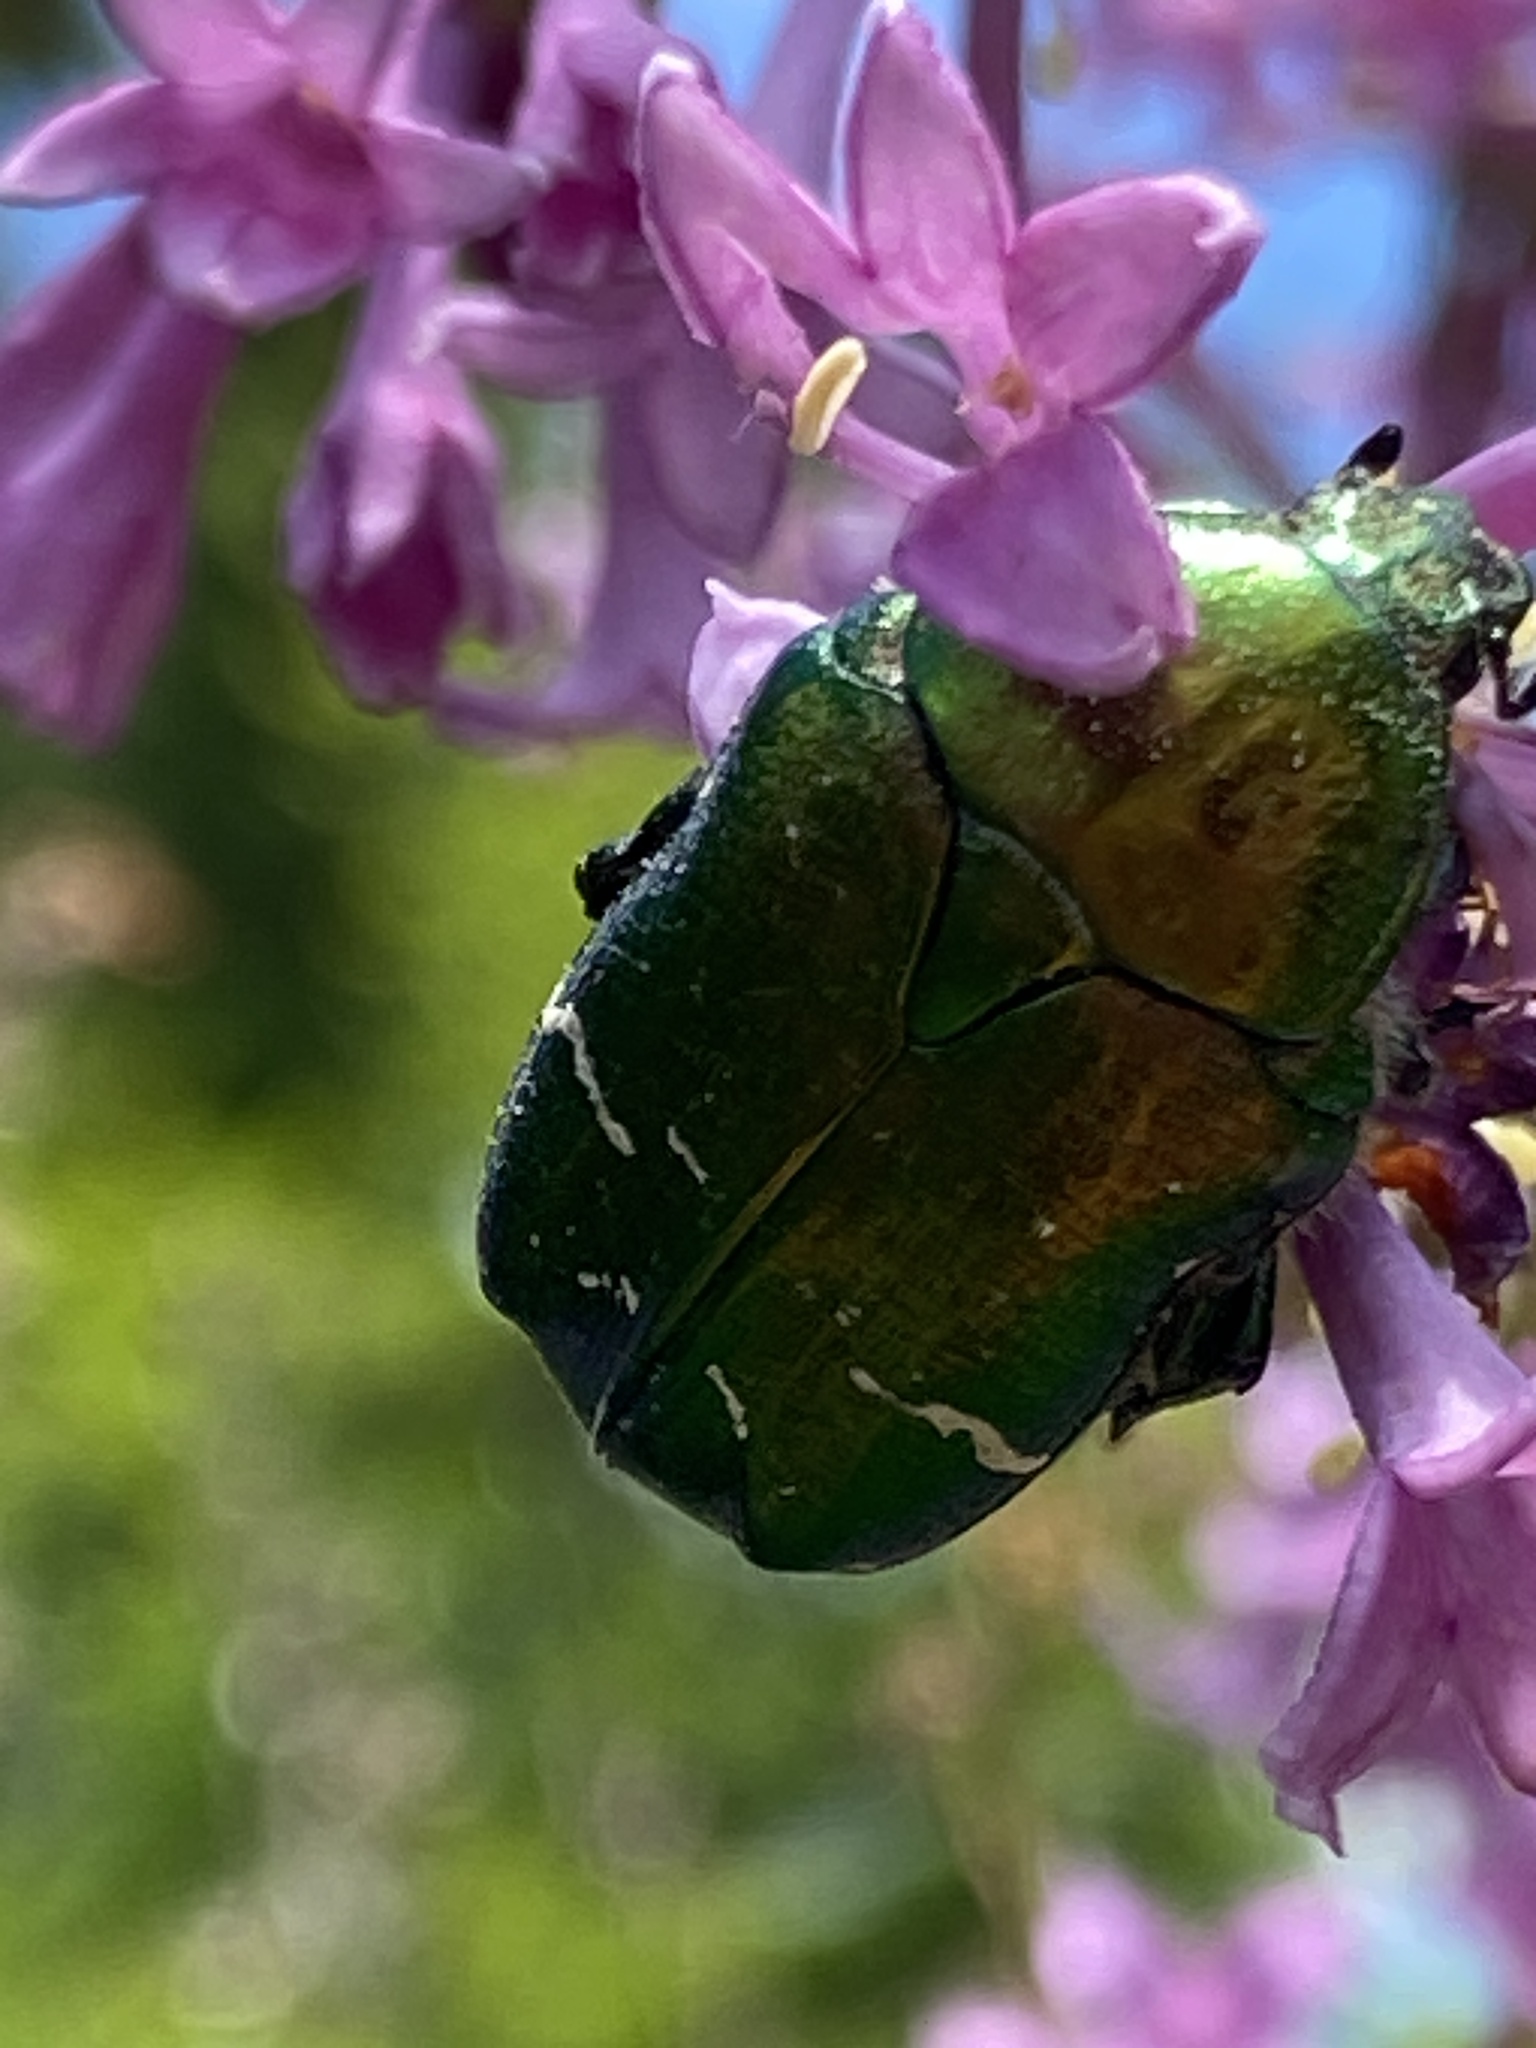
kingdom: Animalia
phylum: Arthropoda
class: Insecta
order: Coleoptera
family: Scarabaeidae
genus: Cetonia
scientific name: Cetonia aurata
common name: Rose chafer
